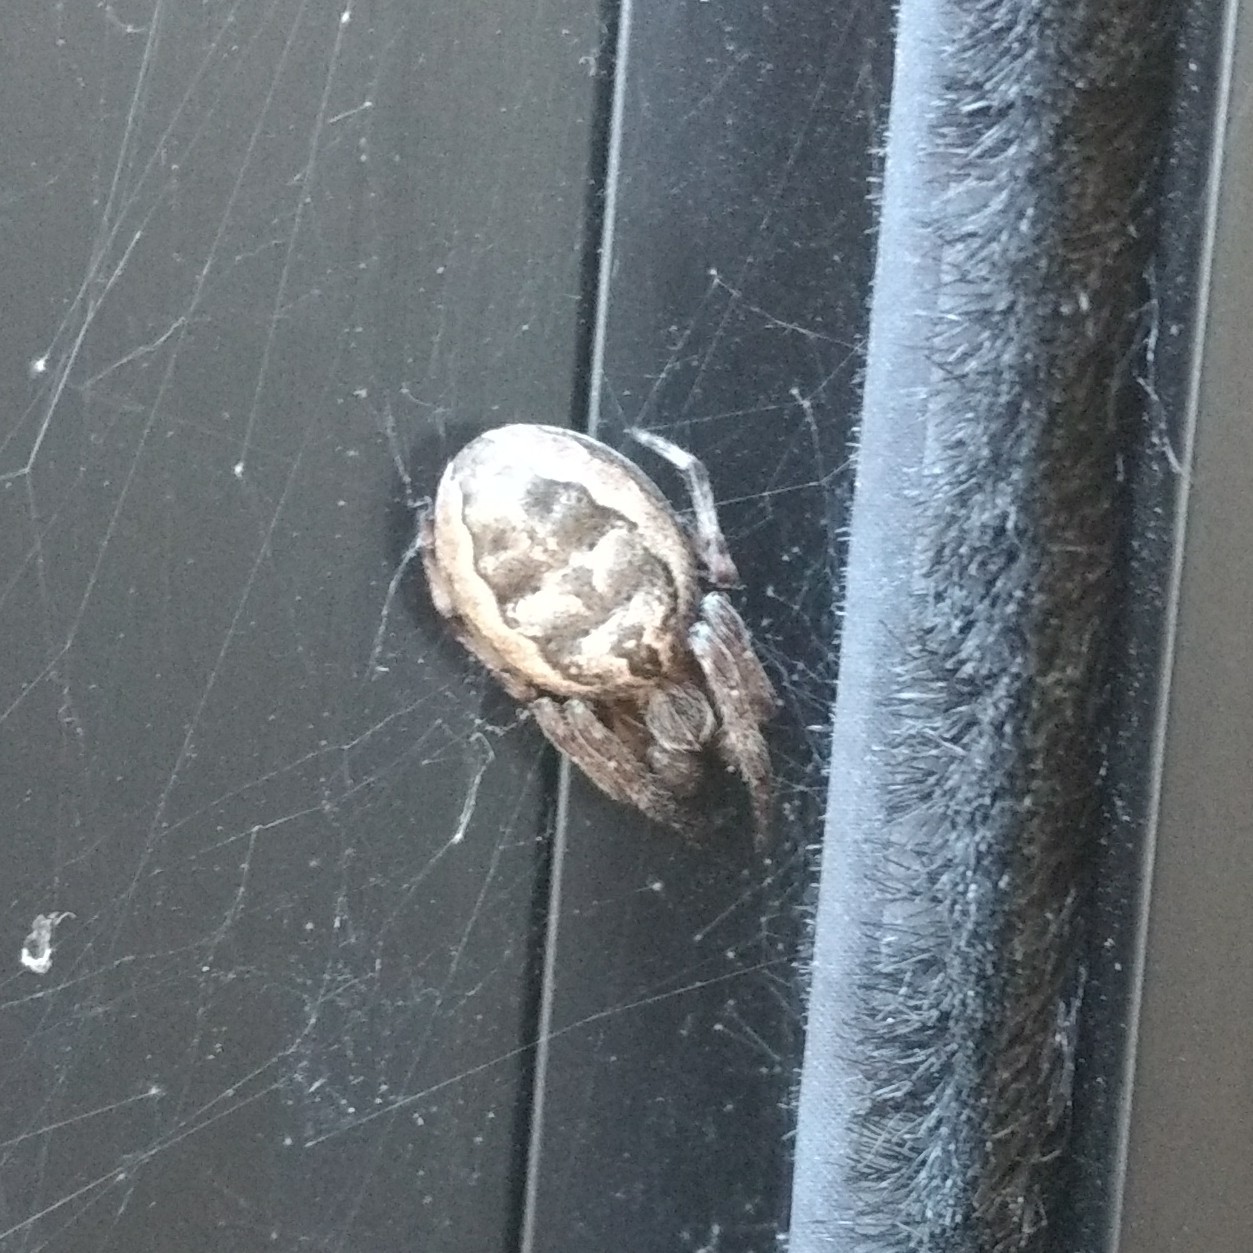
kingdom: Animalia
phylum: Arthropoda
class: Arachnida
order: Araneae
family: Araneidae
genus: Larinioides
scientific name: Larinioides cornutus
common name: Furrow orbweaver
